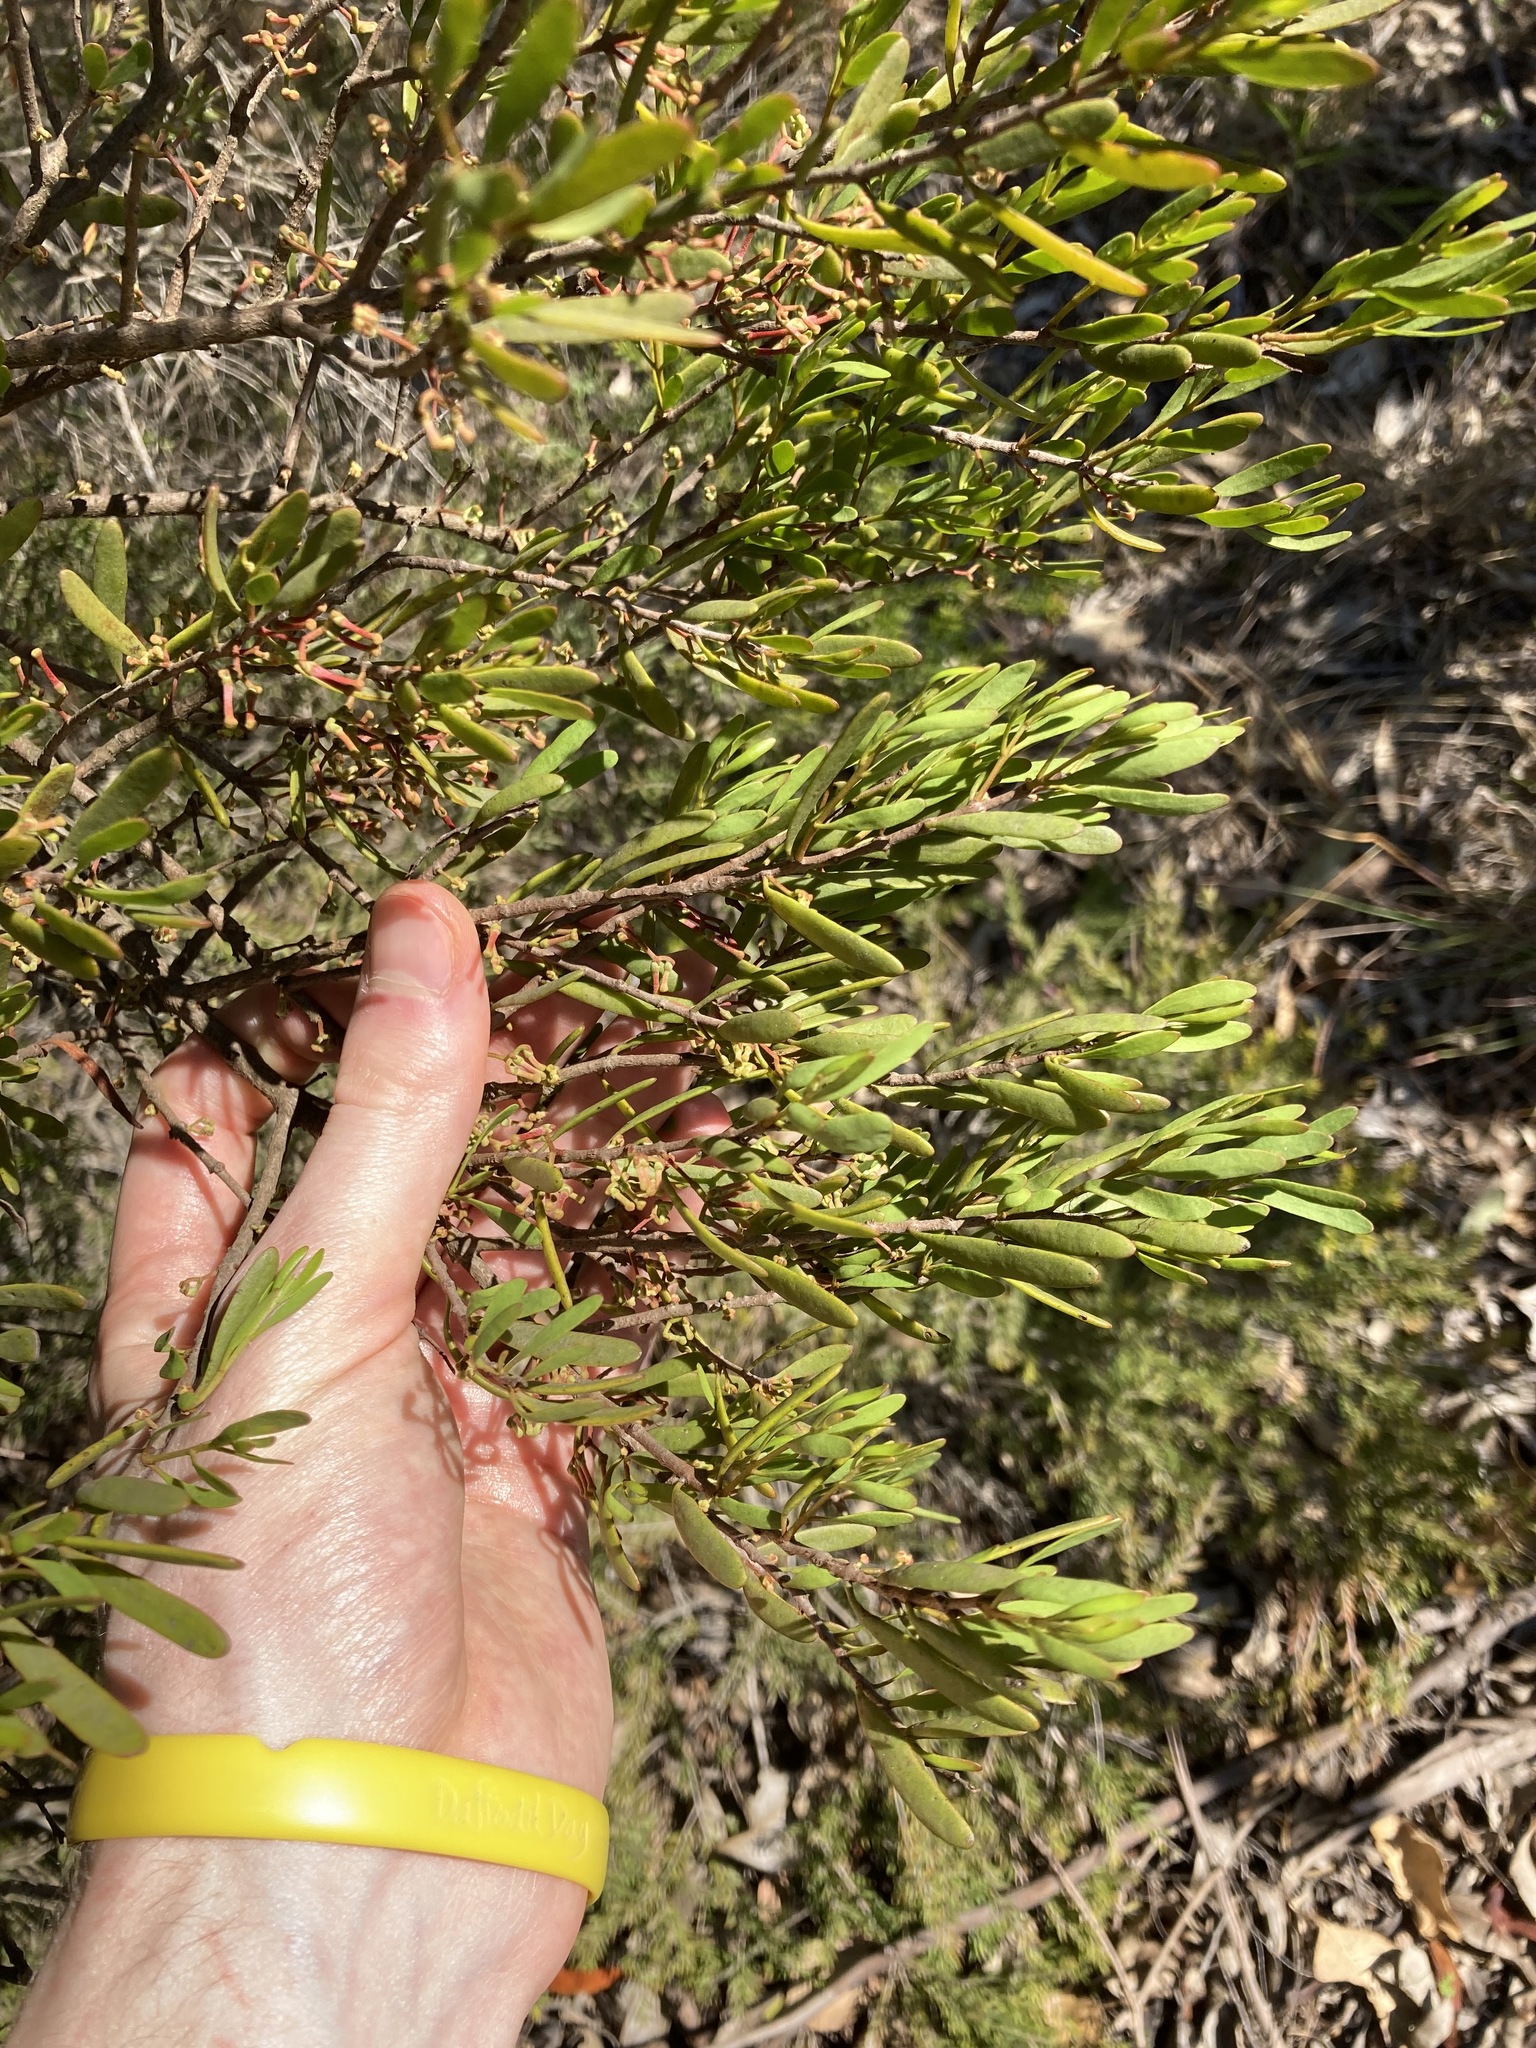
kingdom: Plantae
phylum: Tracheophyta
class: Magnoliopsida
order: Santalales
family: Loranthaceae
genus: Amyema
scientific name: Amyema gaudichaudii
